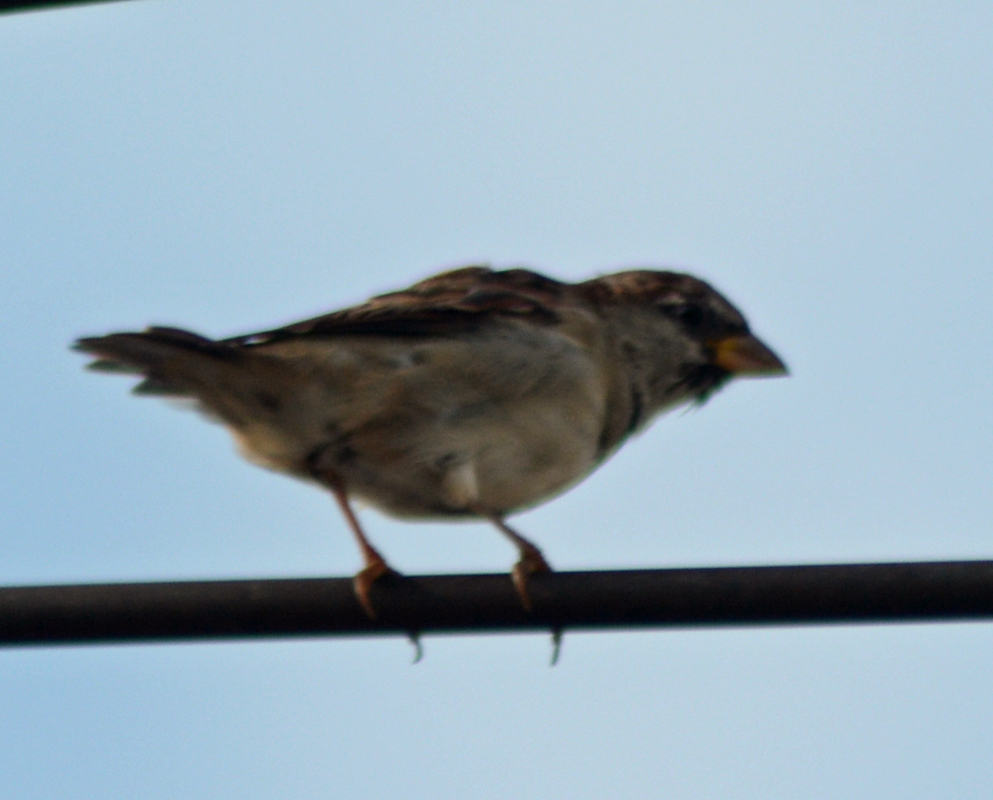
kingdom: Animalia
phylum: Chordata
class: Aves
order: Passeriformes
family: Passeridae
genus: Passer
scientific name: Passer domesticus
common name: House sparrow
